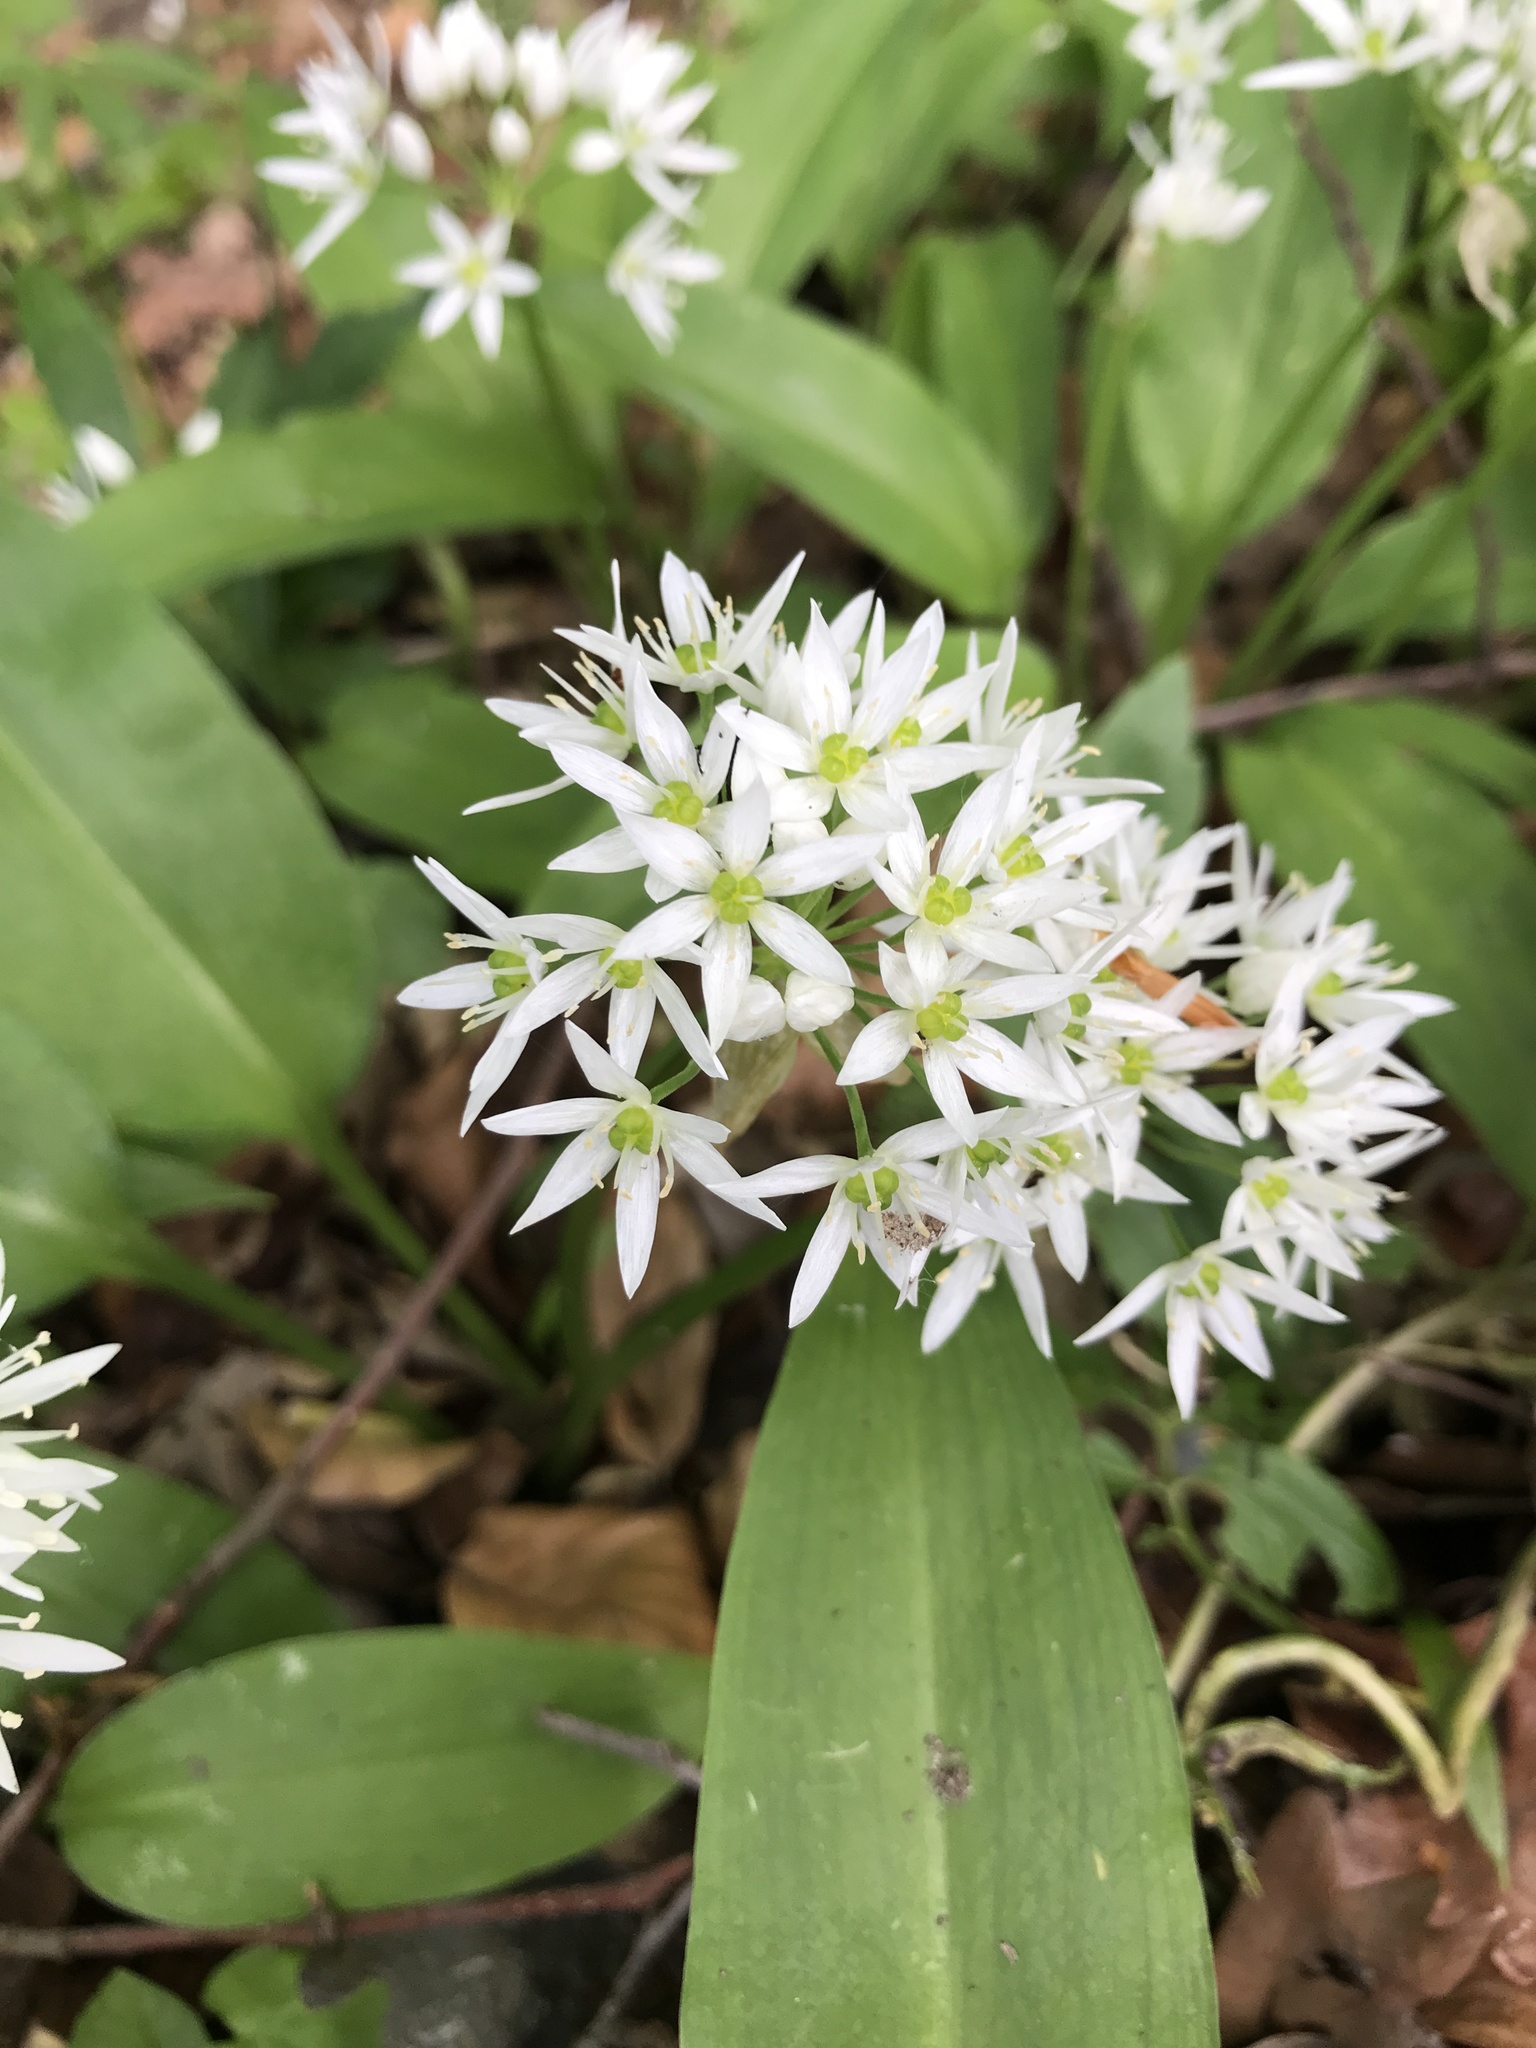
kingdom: Plantae
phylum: Tracheophyta
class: Liliopsida
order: Asparagales
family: Amaryllidaceae
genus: Allium
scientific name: Allium ursinum
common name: Ramsons
